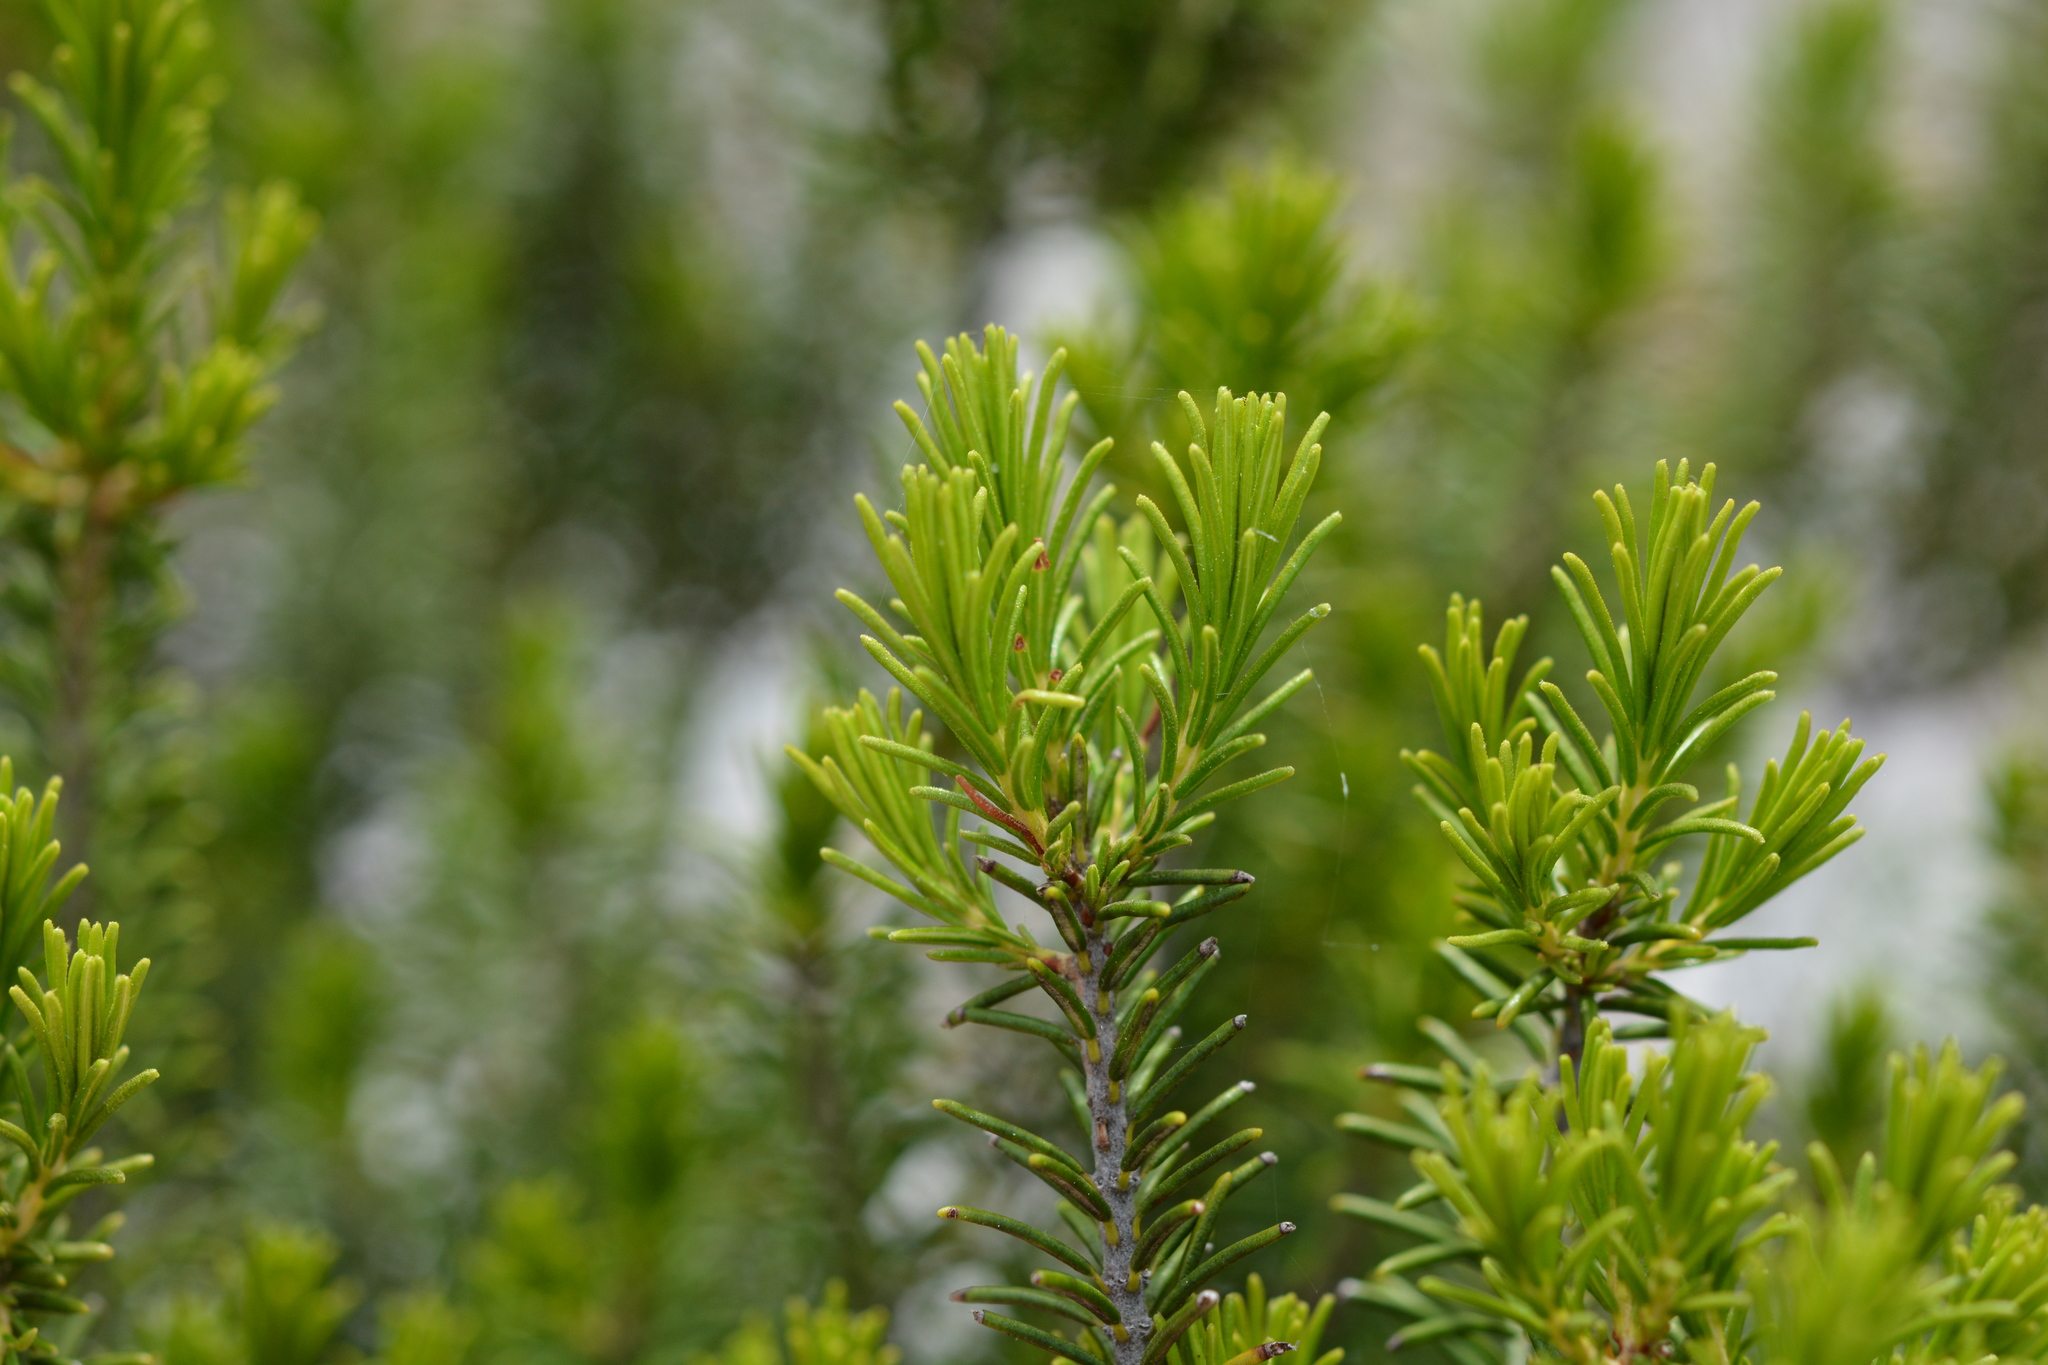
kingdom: Plantae
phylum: Tracheophyta
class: Magnoliopsida
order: Ericales
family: Ericaceae
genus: Ceratiola
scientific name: Ceratiola ericoides
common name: Sandhill-rosemary
